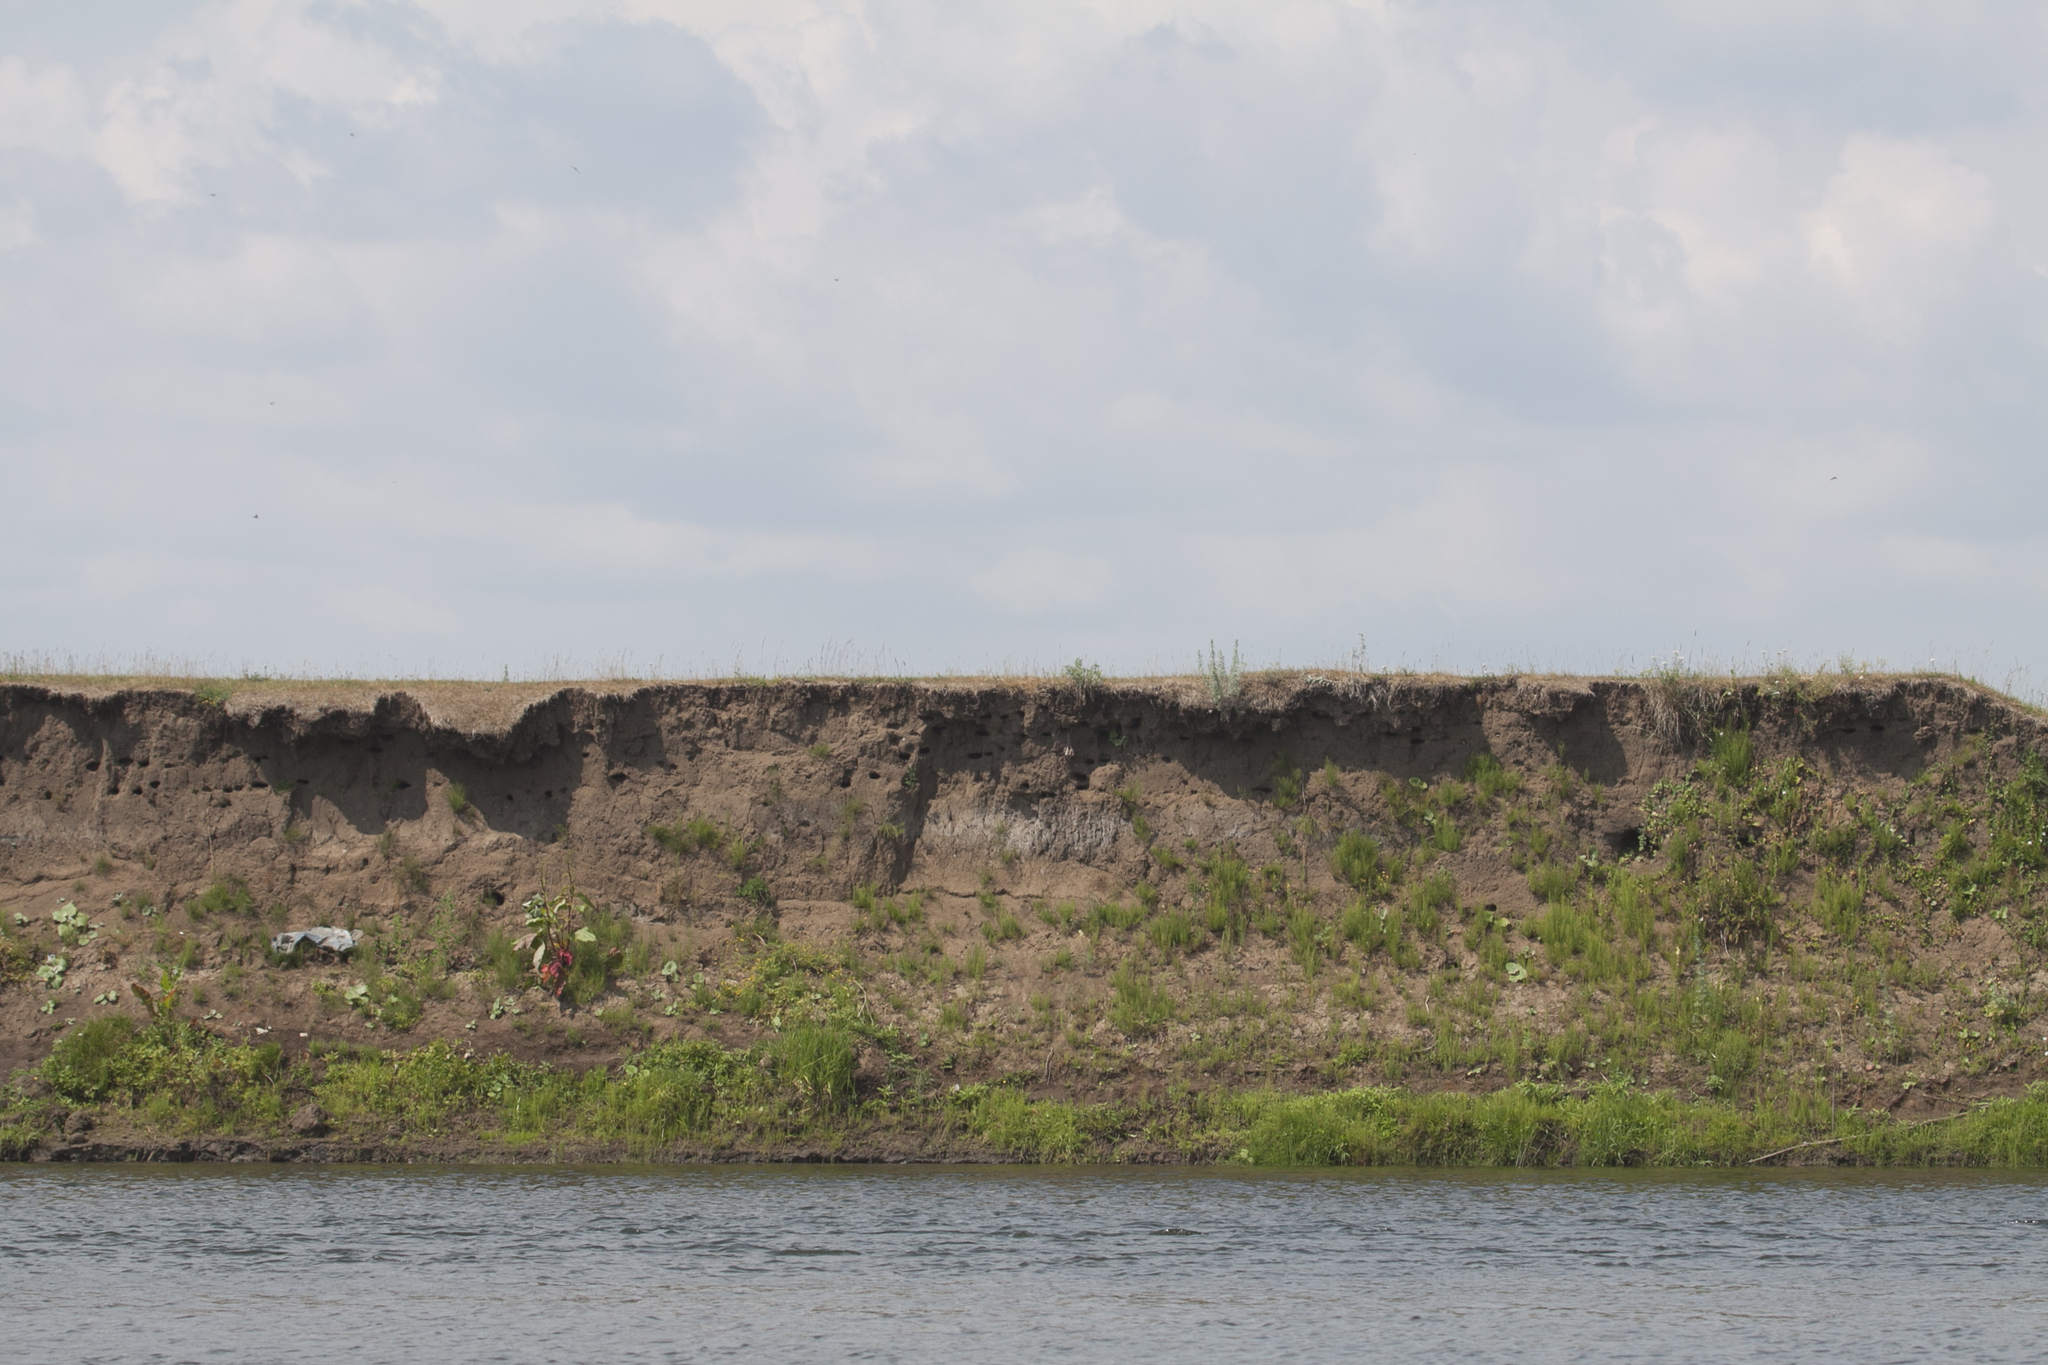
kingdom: Animalia
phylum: Chordata
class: Aves
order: Passeriformes
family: Hirundinidae
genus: Riparia
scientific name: Riparia riparia
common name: Sand martin
